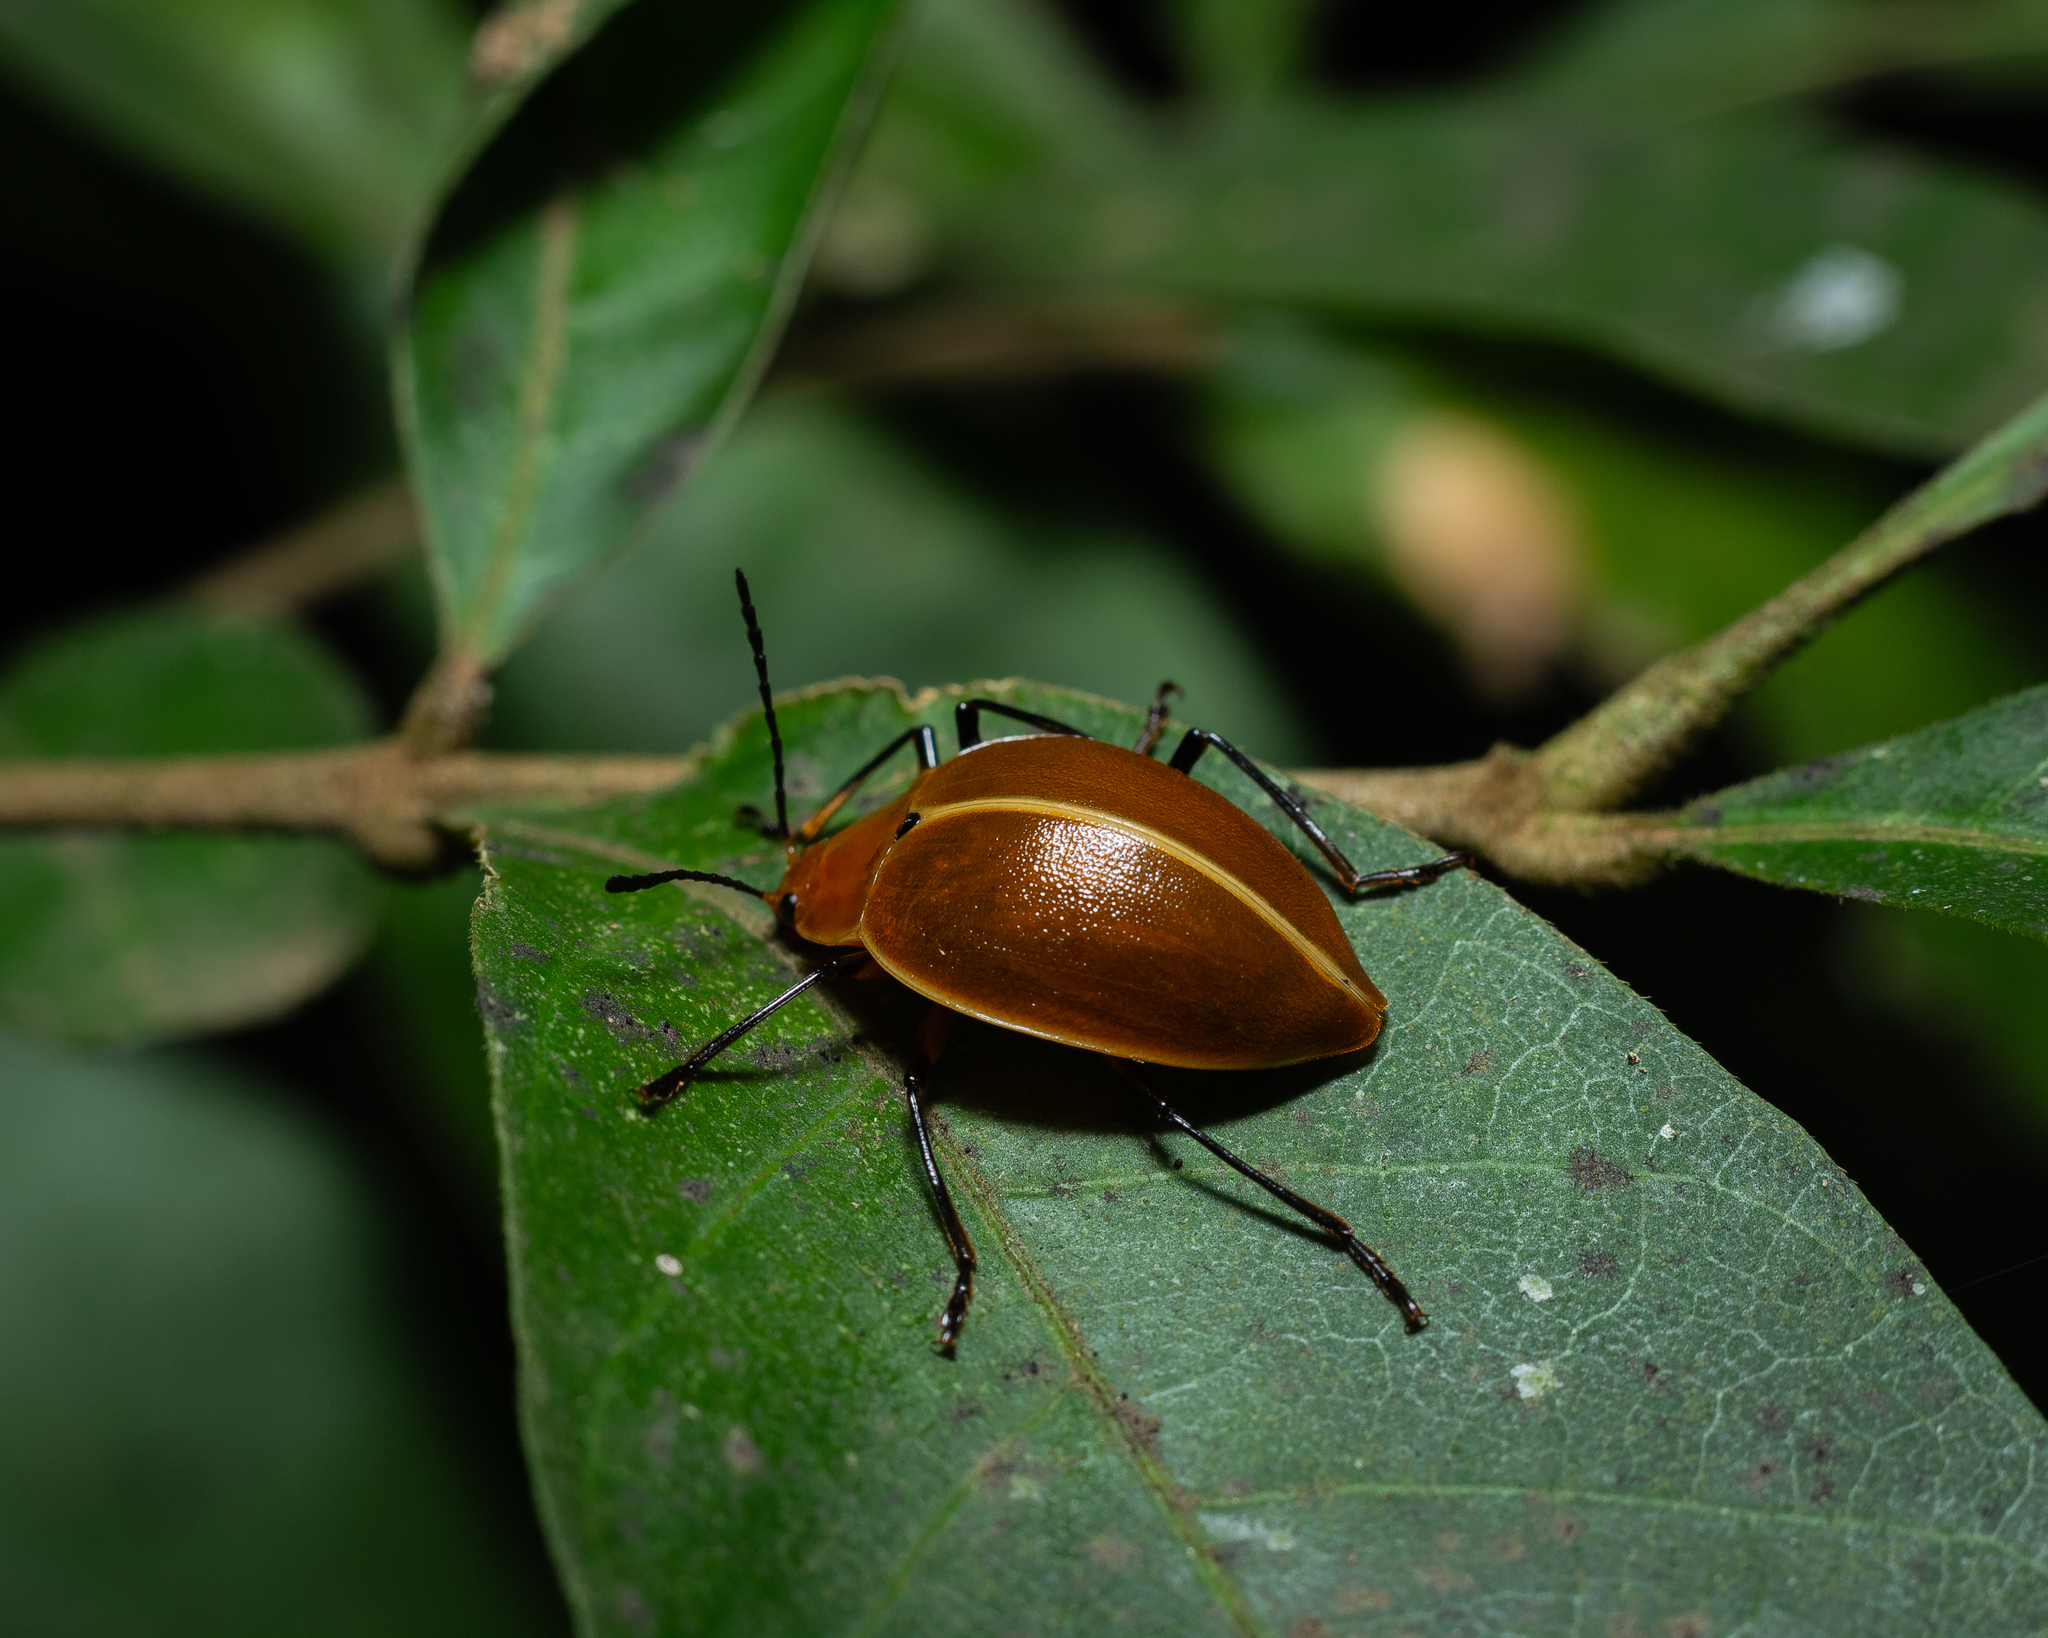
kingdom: Animalia
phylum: Arthropoda
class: Insecta
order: Coleoptera
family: Erotylidae
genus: Ellipticus
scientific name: Ellipticus
